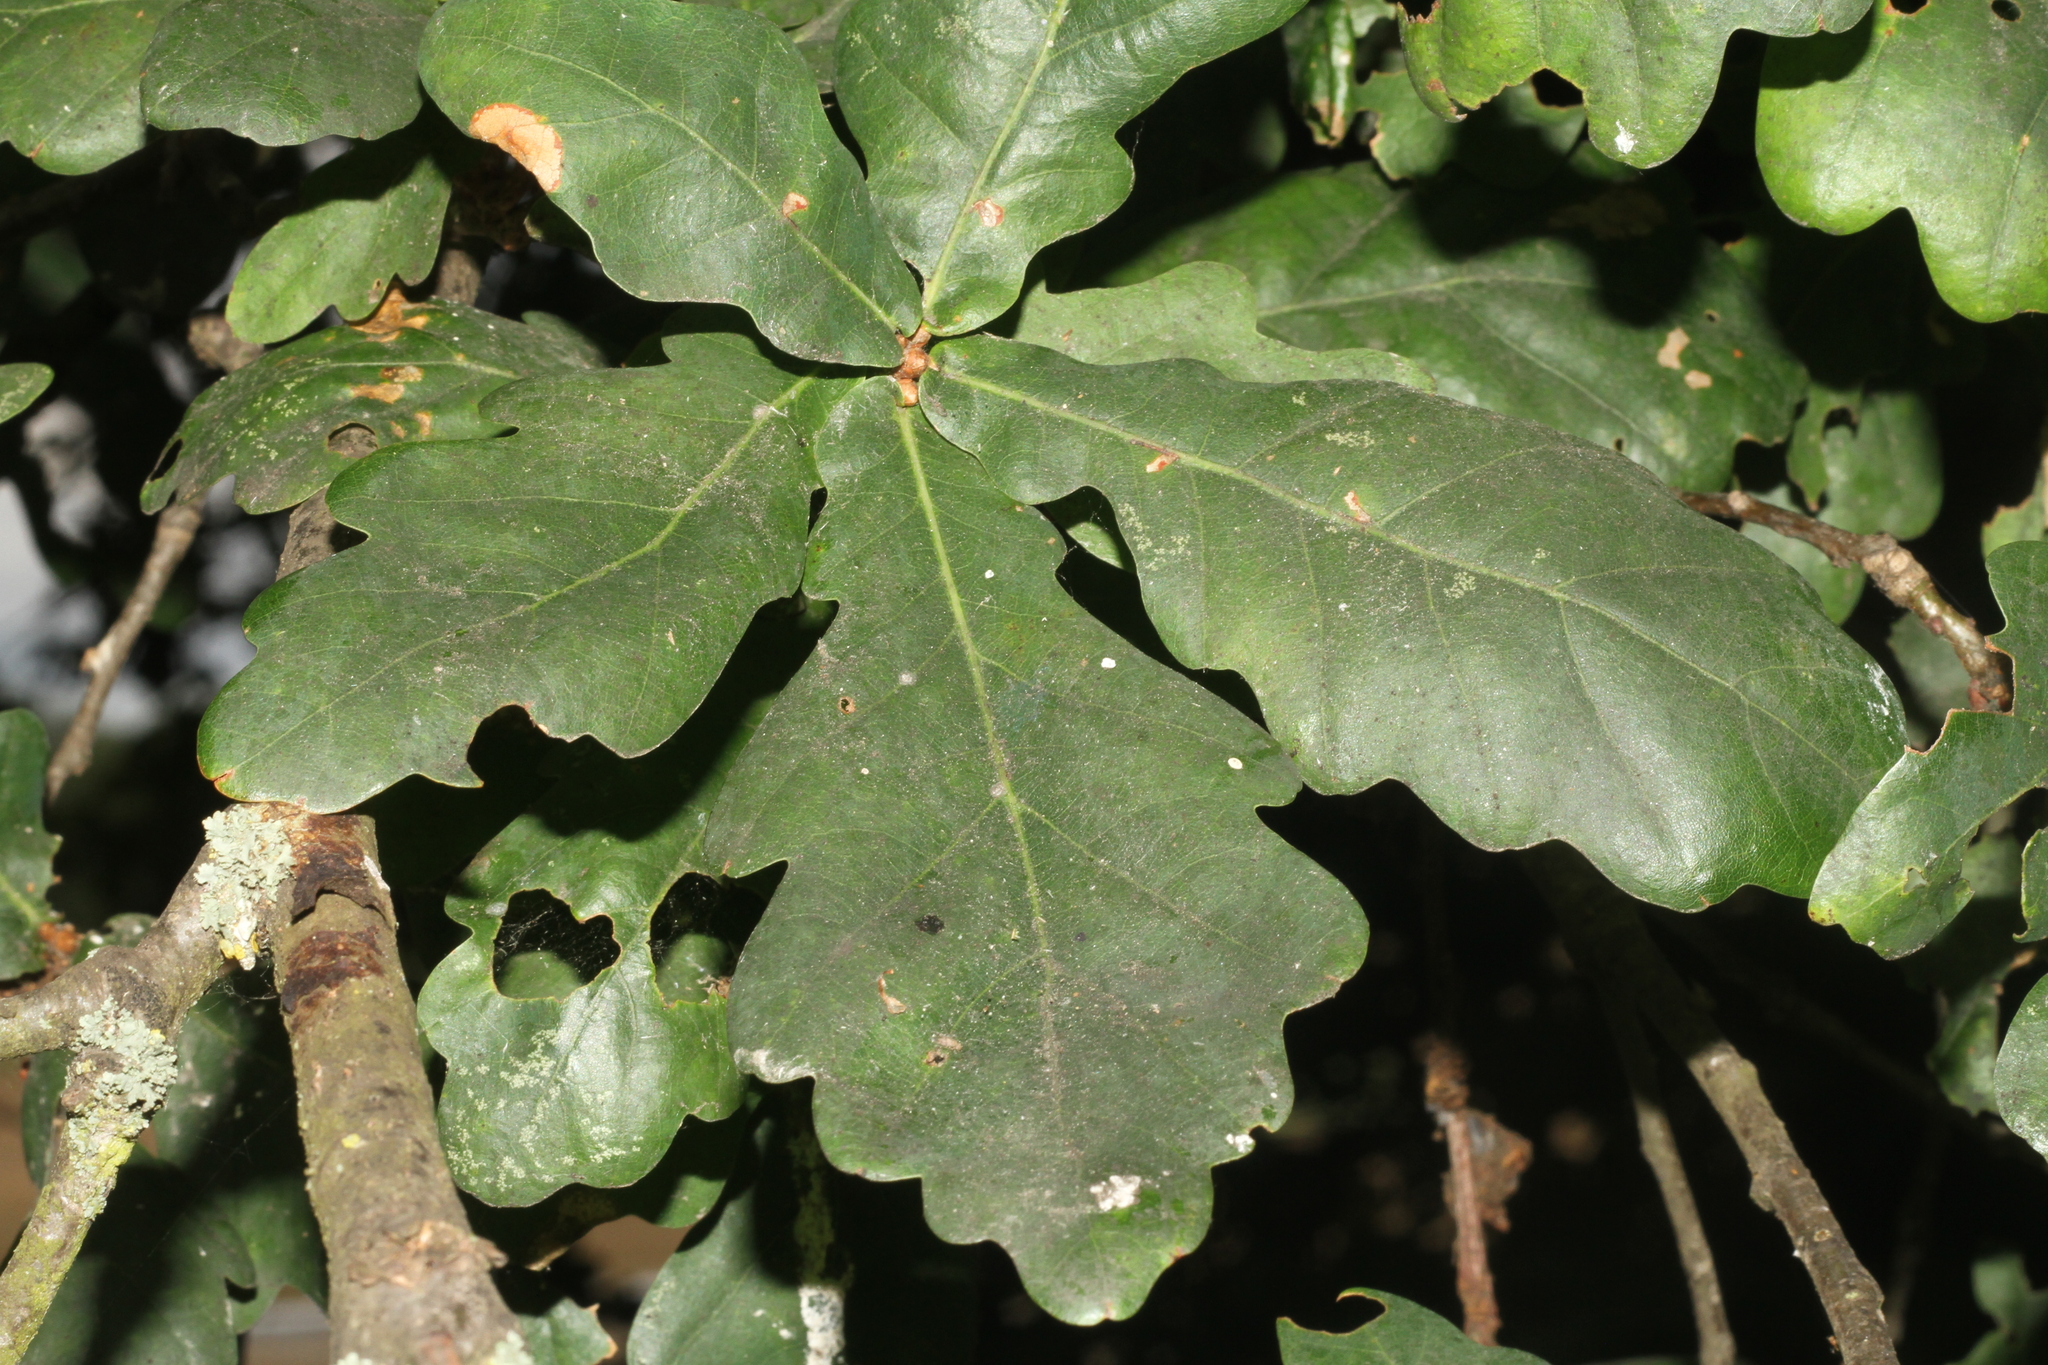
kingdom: Plantae
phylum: Tracheophyta
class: Magnoliopsida
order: Fagales
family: Fagaceae
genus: Quercus
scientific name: Quercus robur
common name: Pedunculate oak
